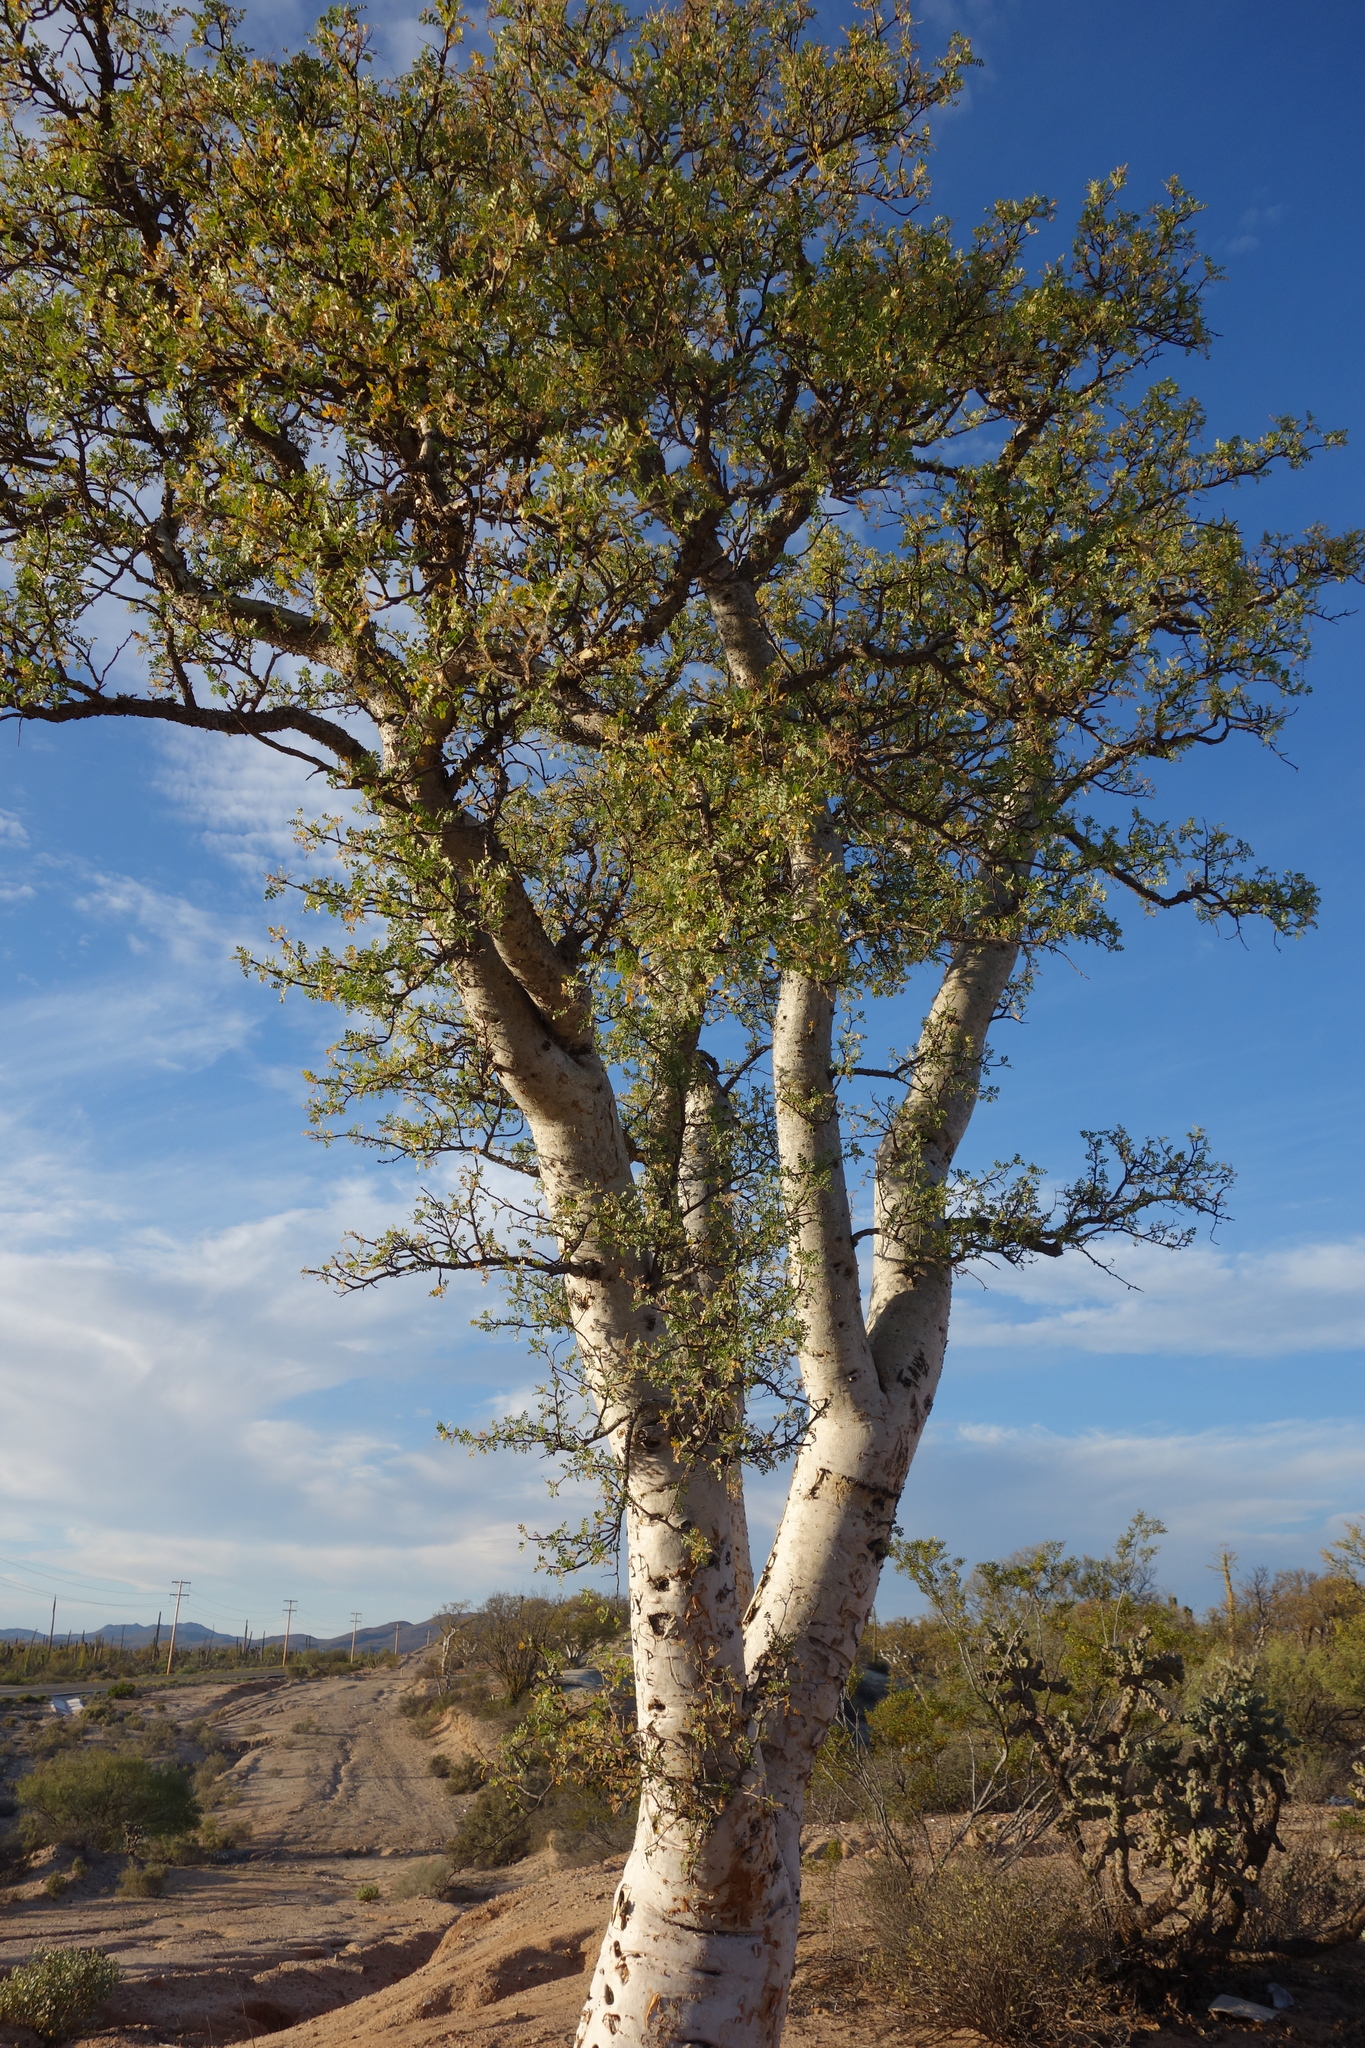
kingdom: Plantae
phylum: Tracheophyta
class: Magnoliopsida
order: Sapindales
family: Anacardiaceae
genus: Pachycormus
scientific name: Pachycormus discolor
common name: Succulent elephant trees
